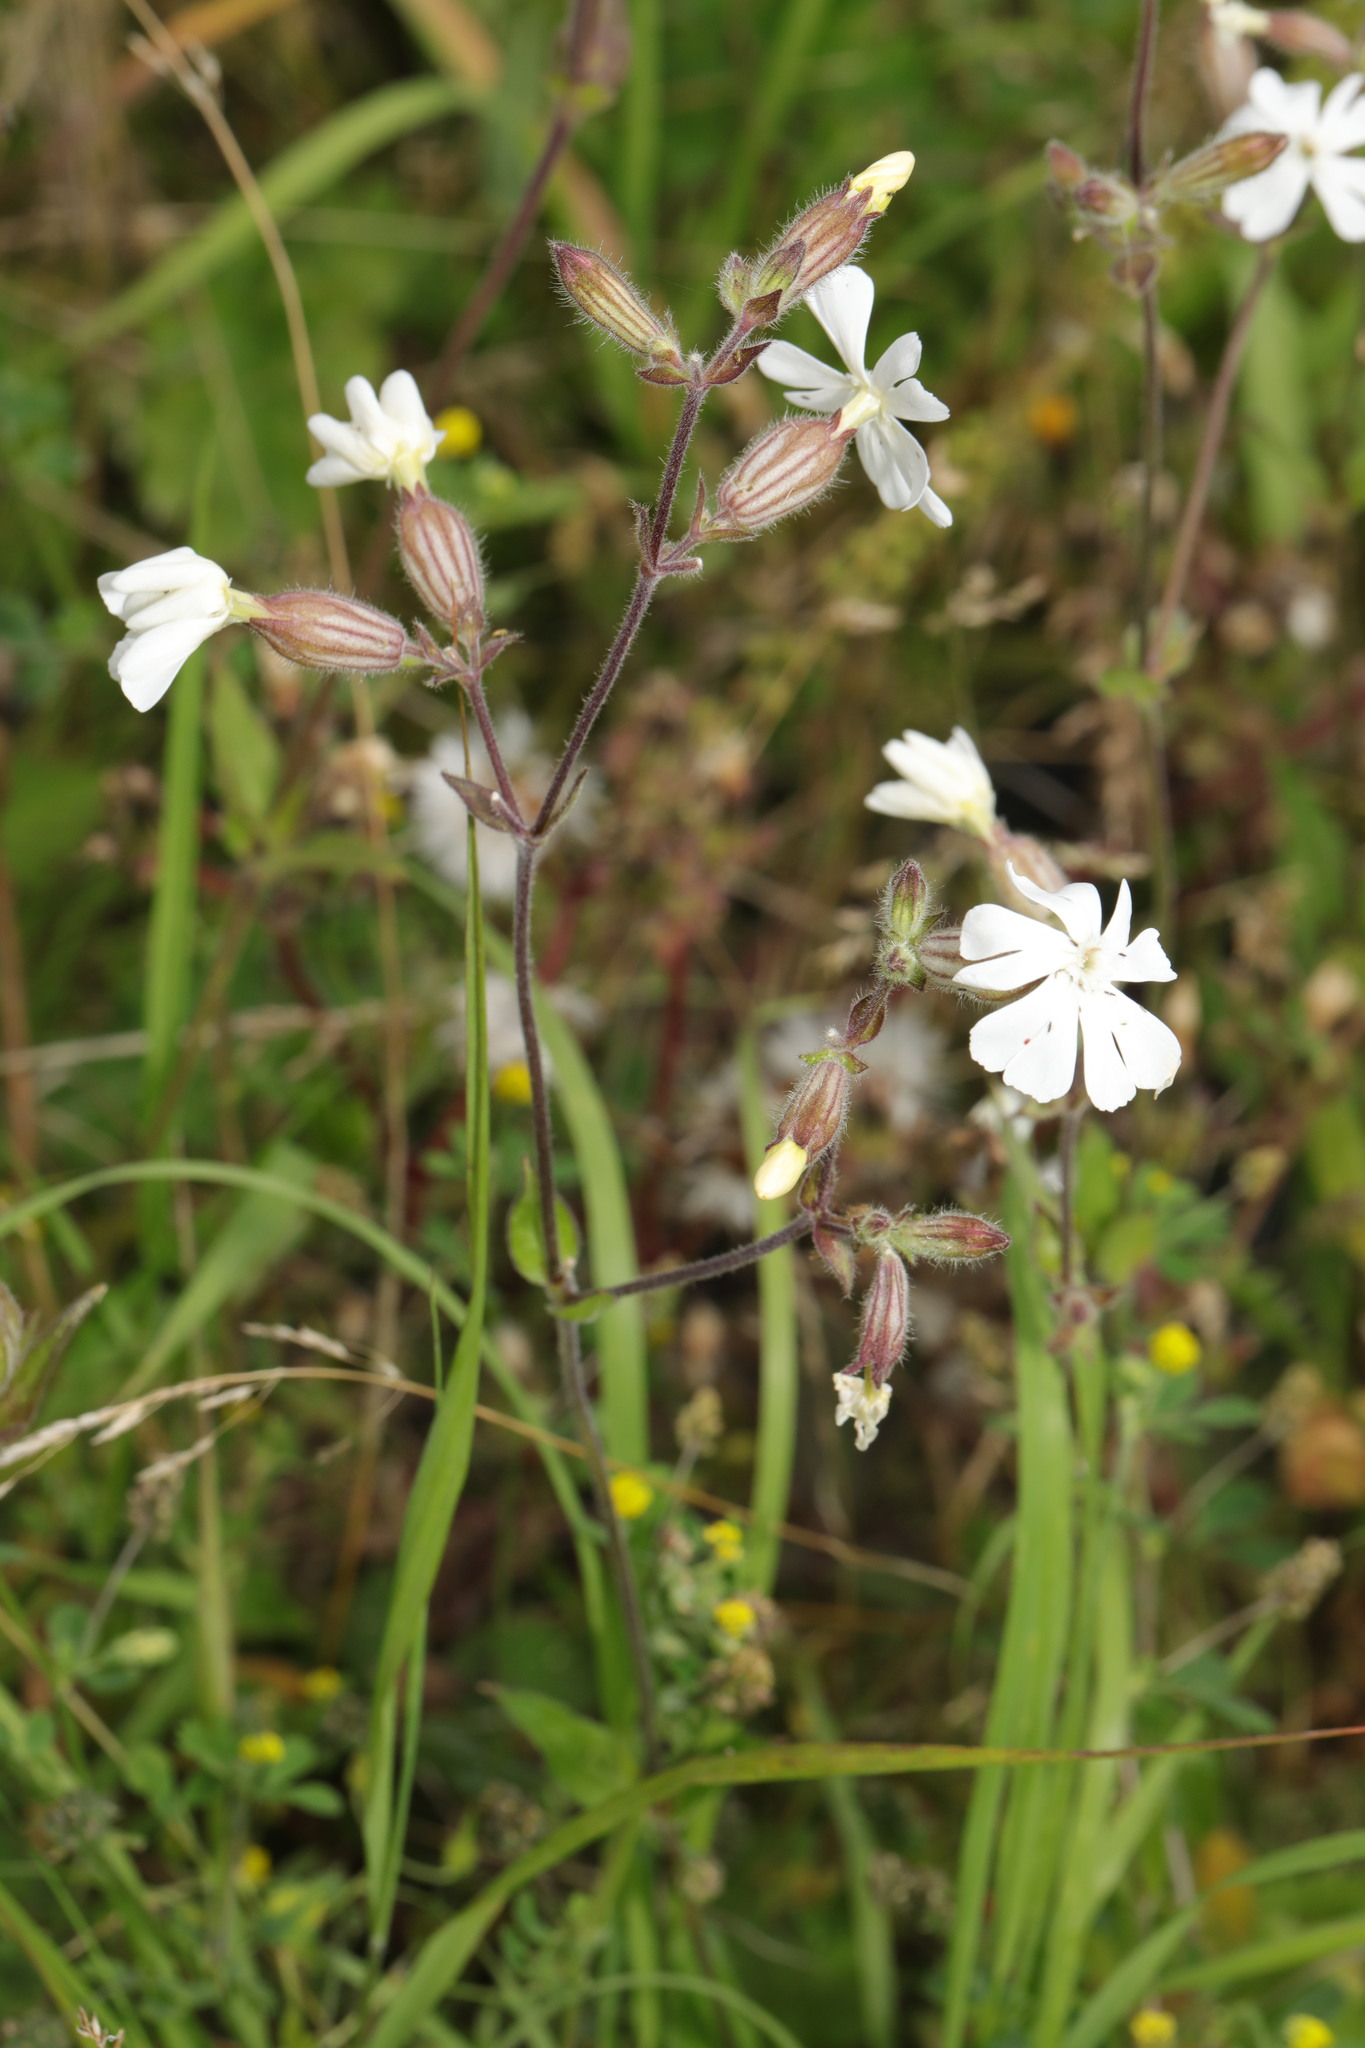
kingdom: Plantae
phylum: Tracheophyta
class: Magnoliopsida
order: Caryophyllales
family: Caryophyllaceae
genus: Silene
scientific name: Silene latifolia
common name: White campion
